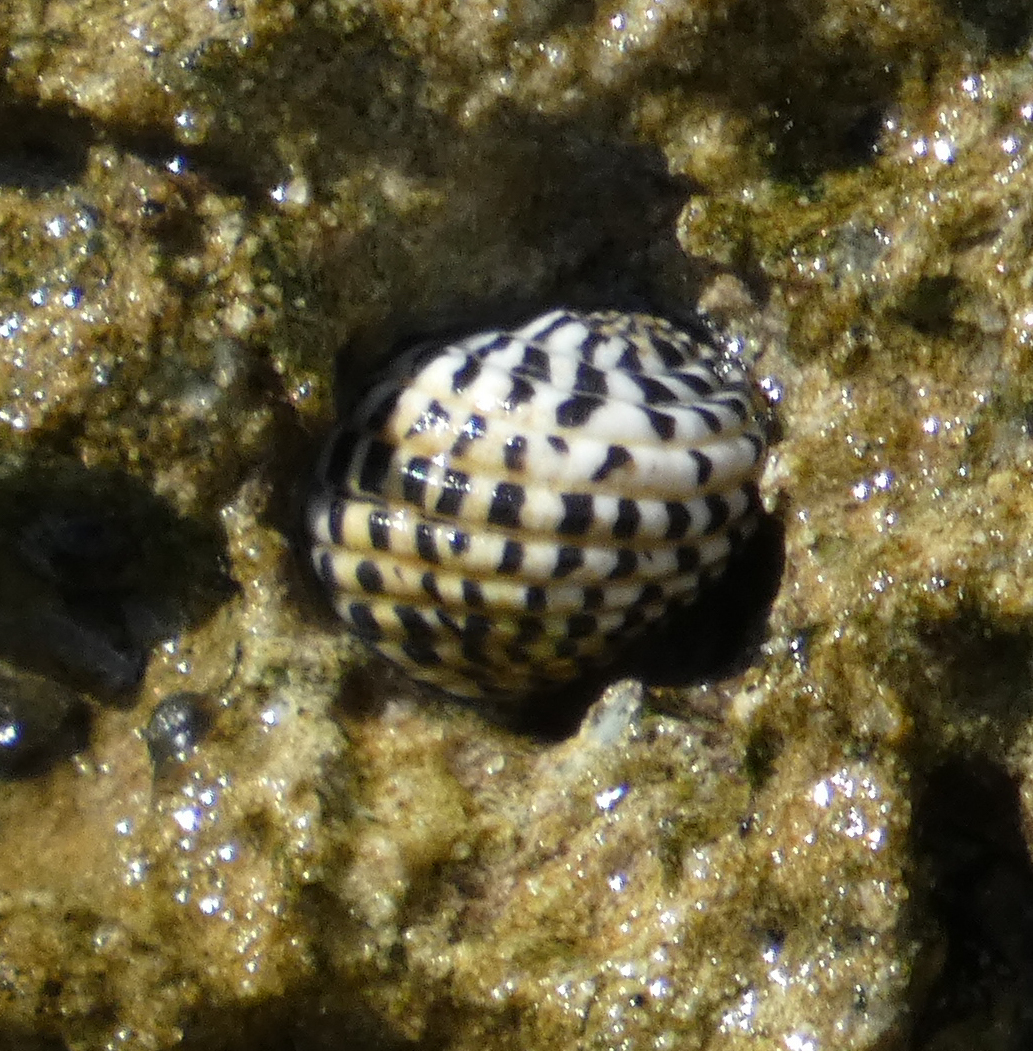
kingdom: Animalia
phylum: Mollusca
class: Gastropoda
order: Cycloneritida
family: Neritidae
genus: Nerita
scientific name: Nerita tessellata
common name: Checkered nerite
